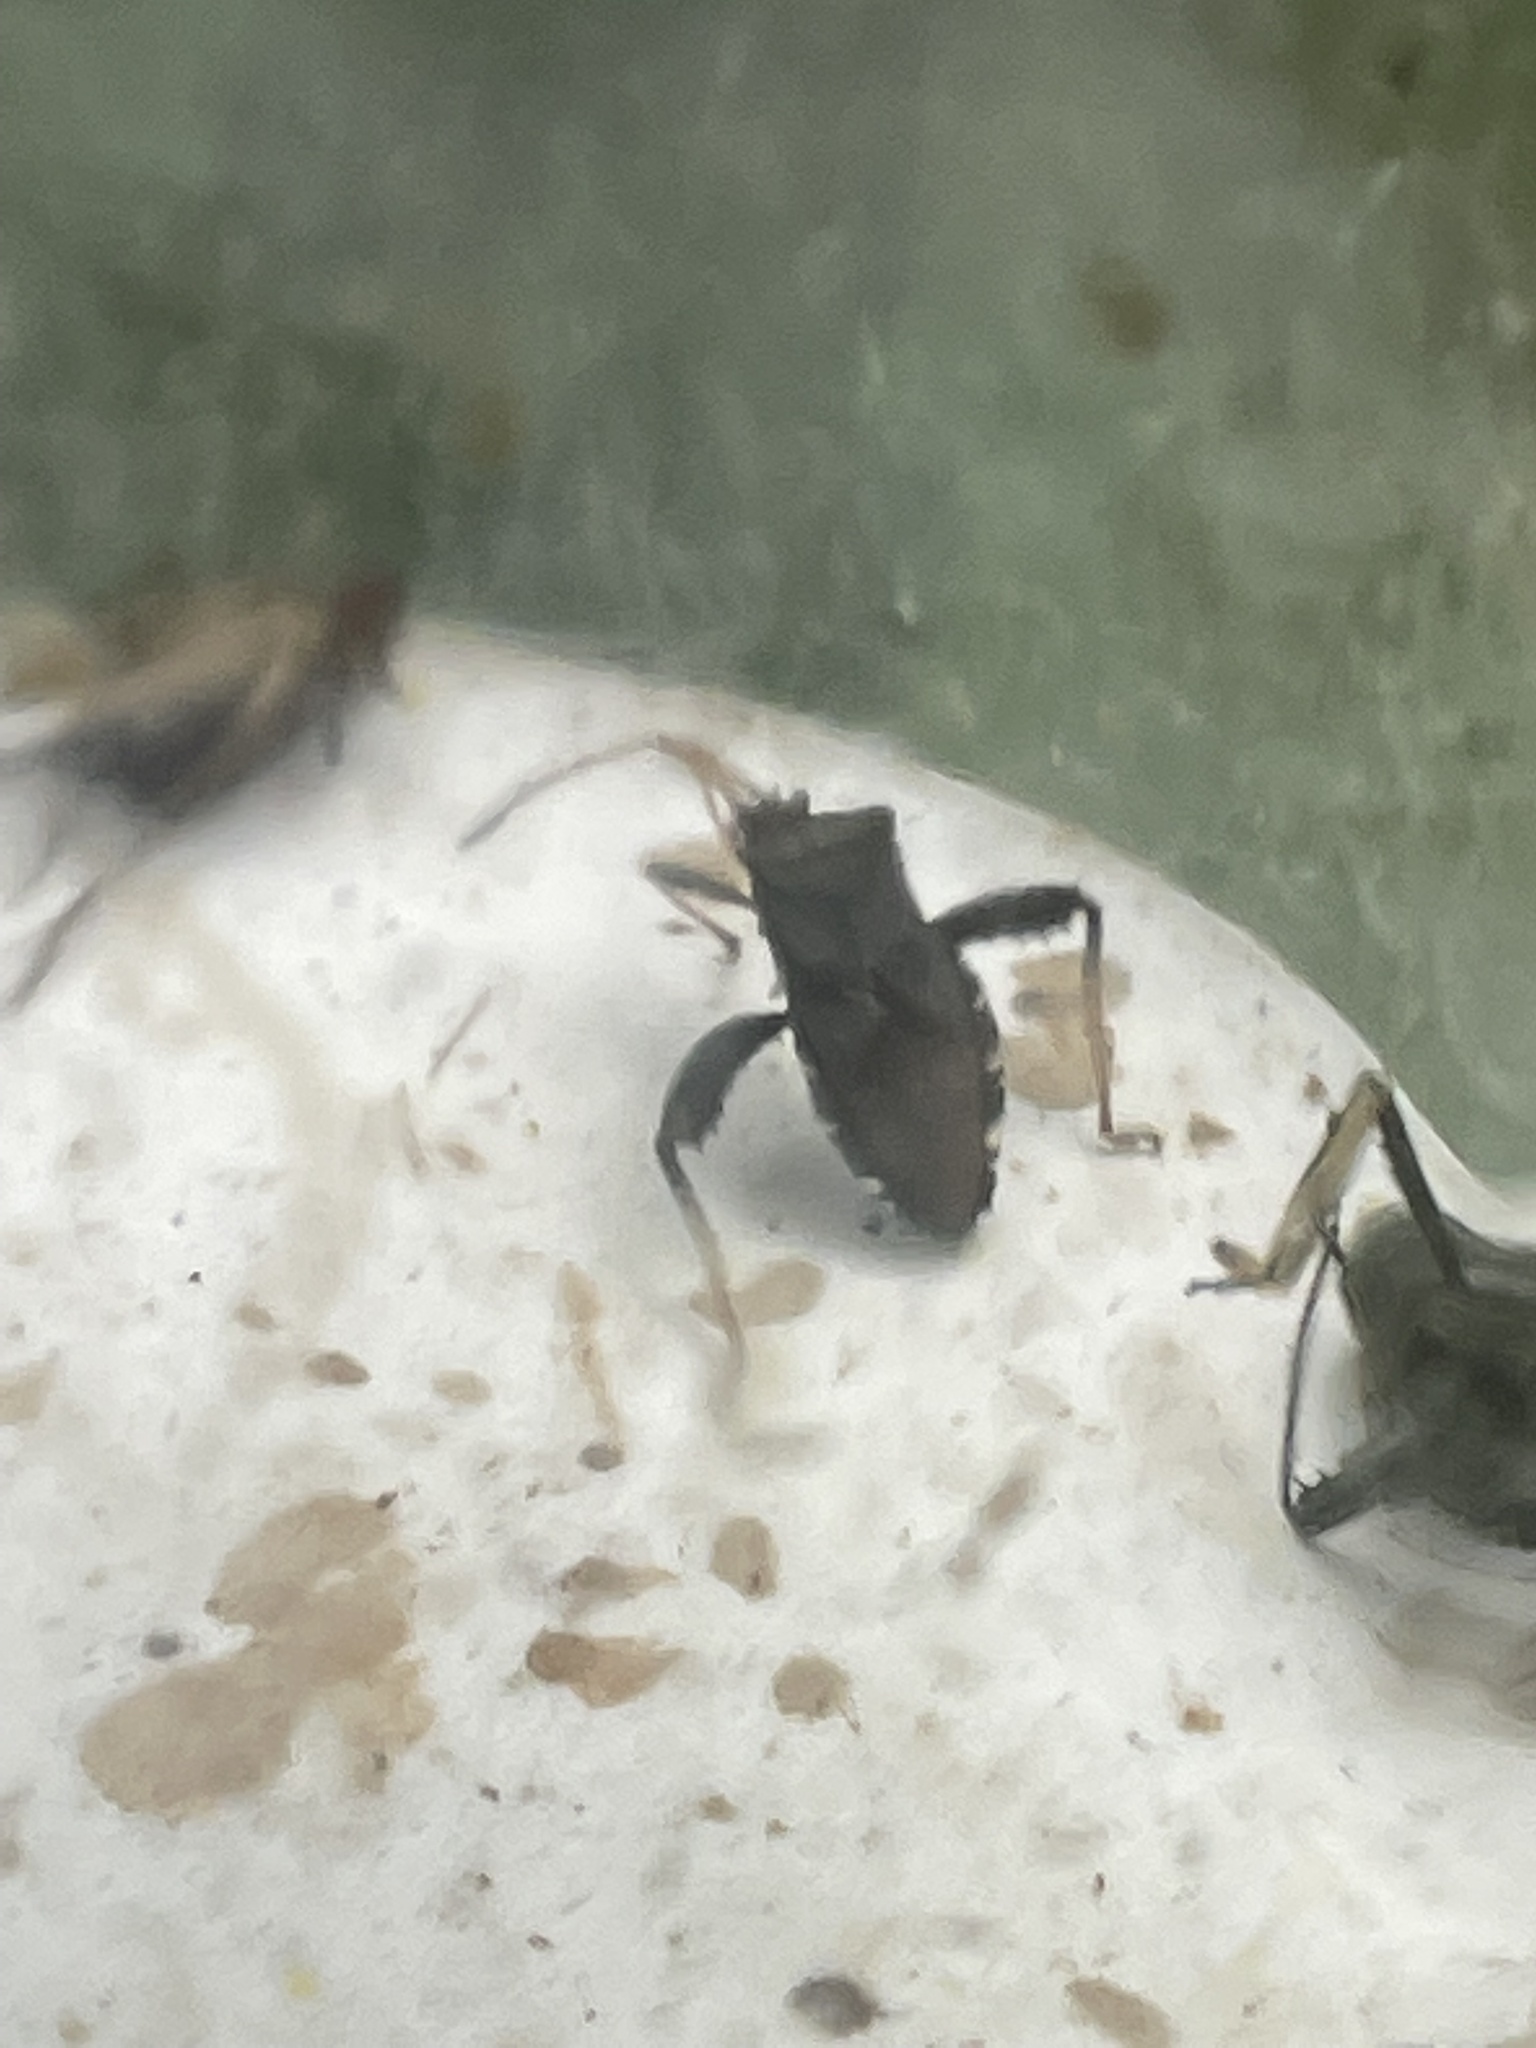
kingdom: Animalia
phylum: Arthropoda
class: Insecta
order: Hemiptera
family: Coreidae
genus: Euthochtha
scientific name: Euthochtha galeator
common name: Helmeted squash bug
